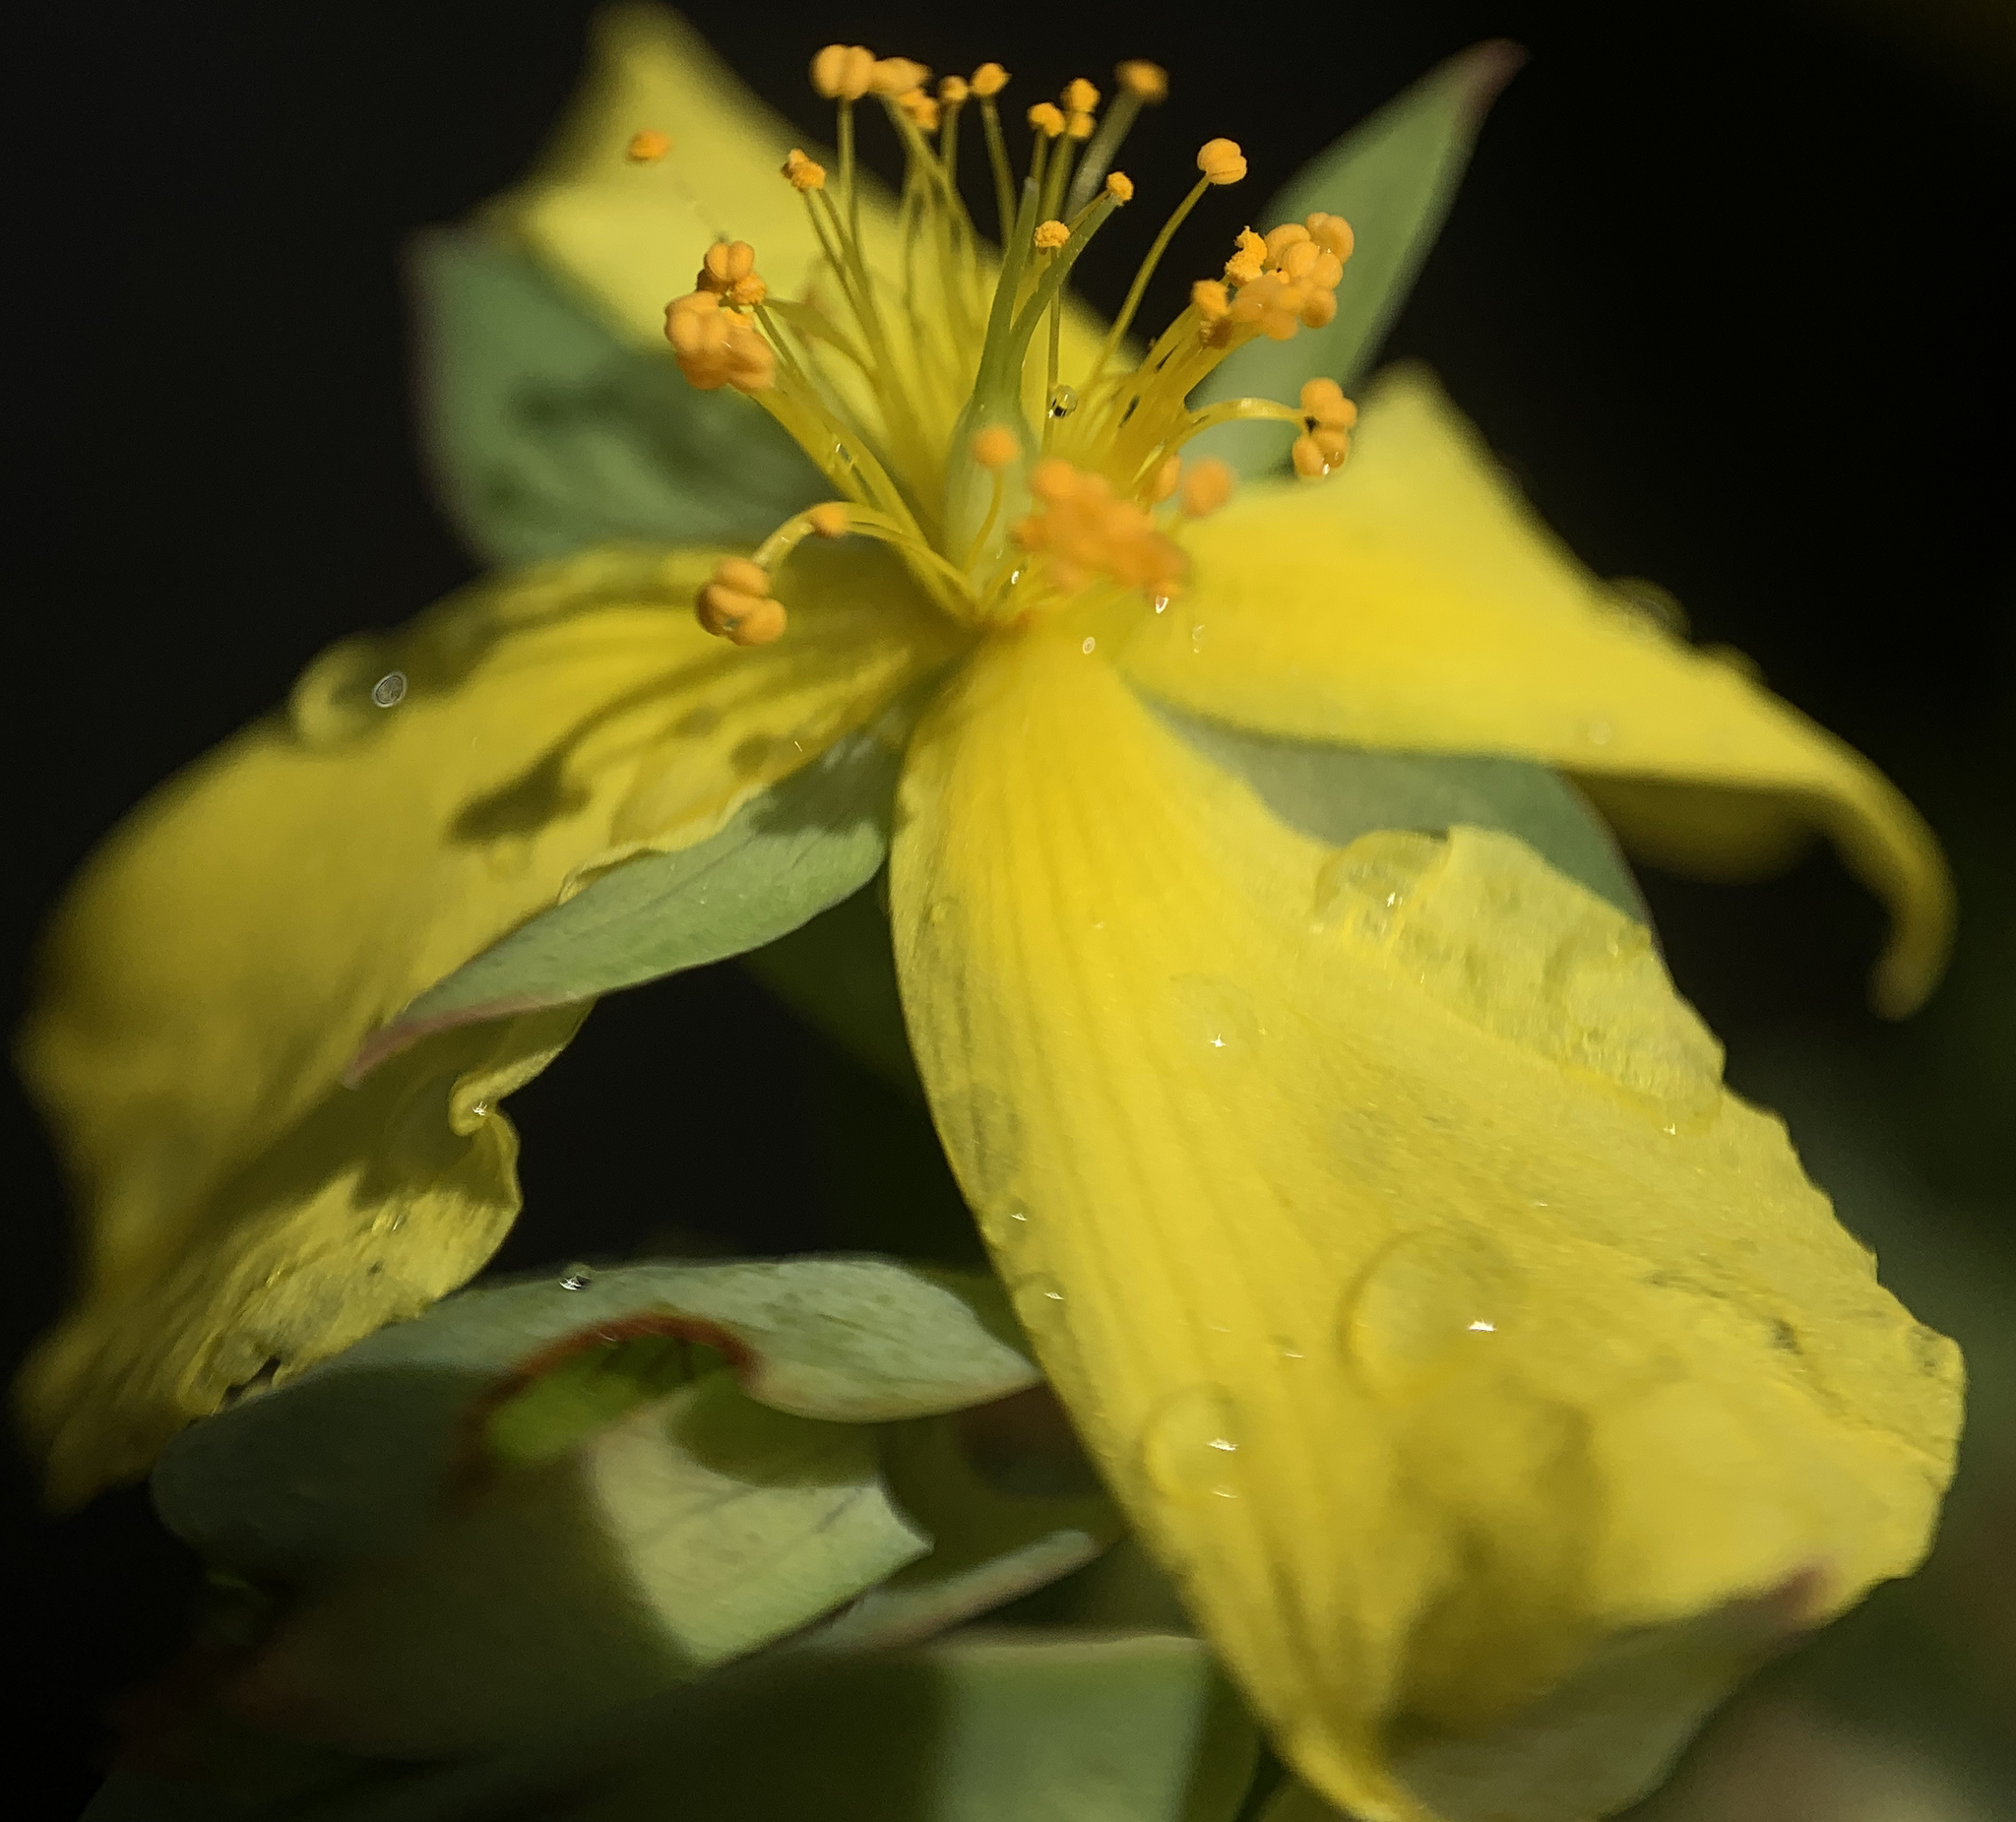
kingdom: Plantae
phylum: Tracheophyta
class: Magnoliopsida
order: Malpighiales
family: Hypericaceae
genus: Hypericum
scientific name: Hypericum tetrapetalum
